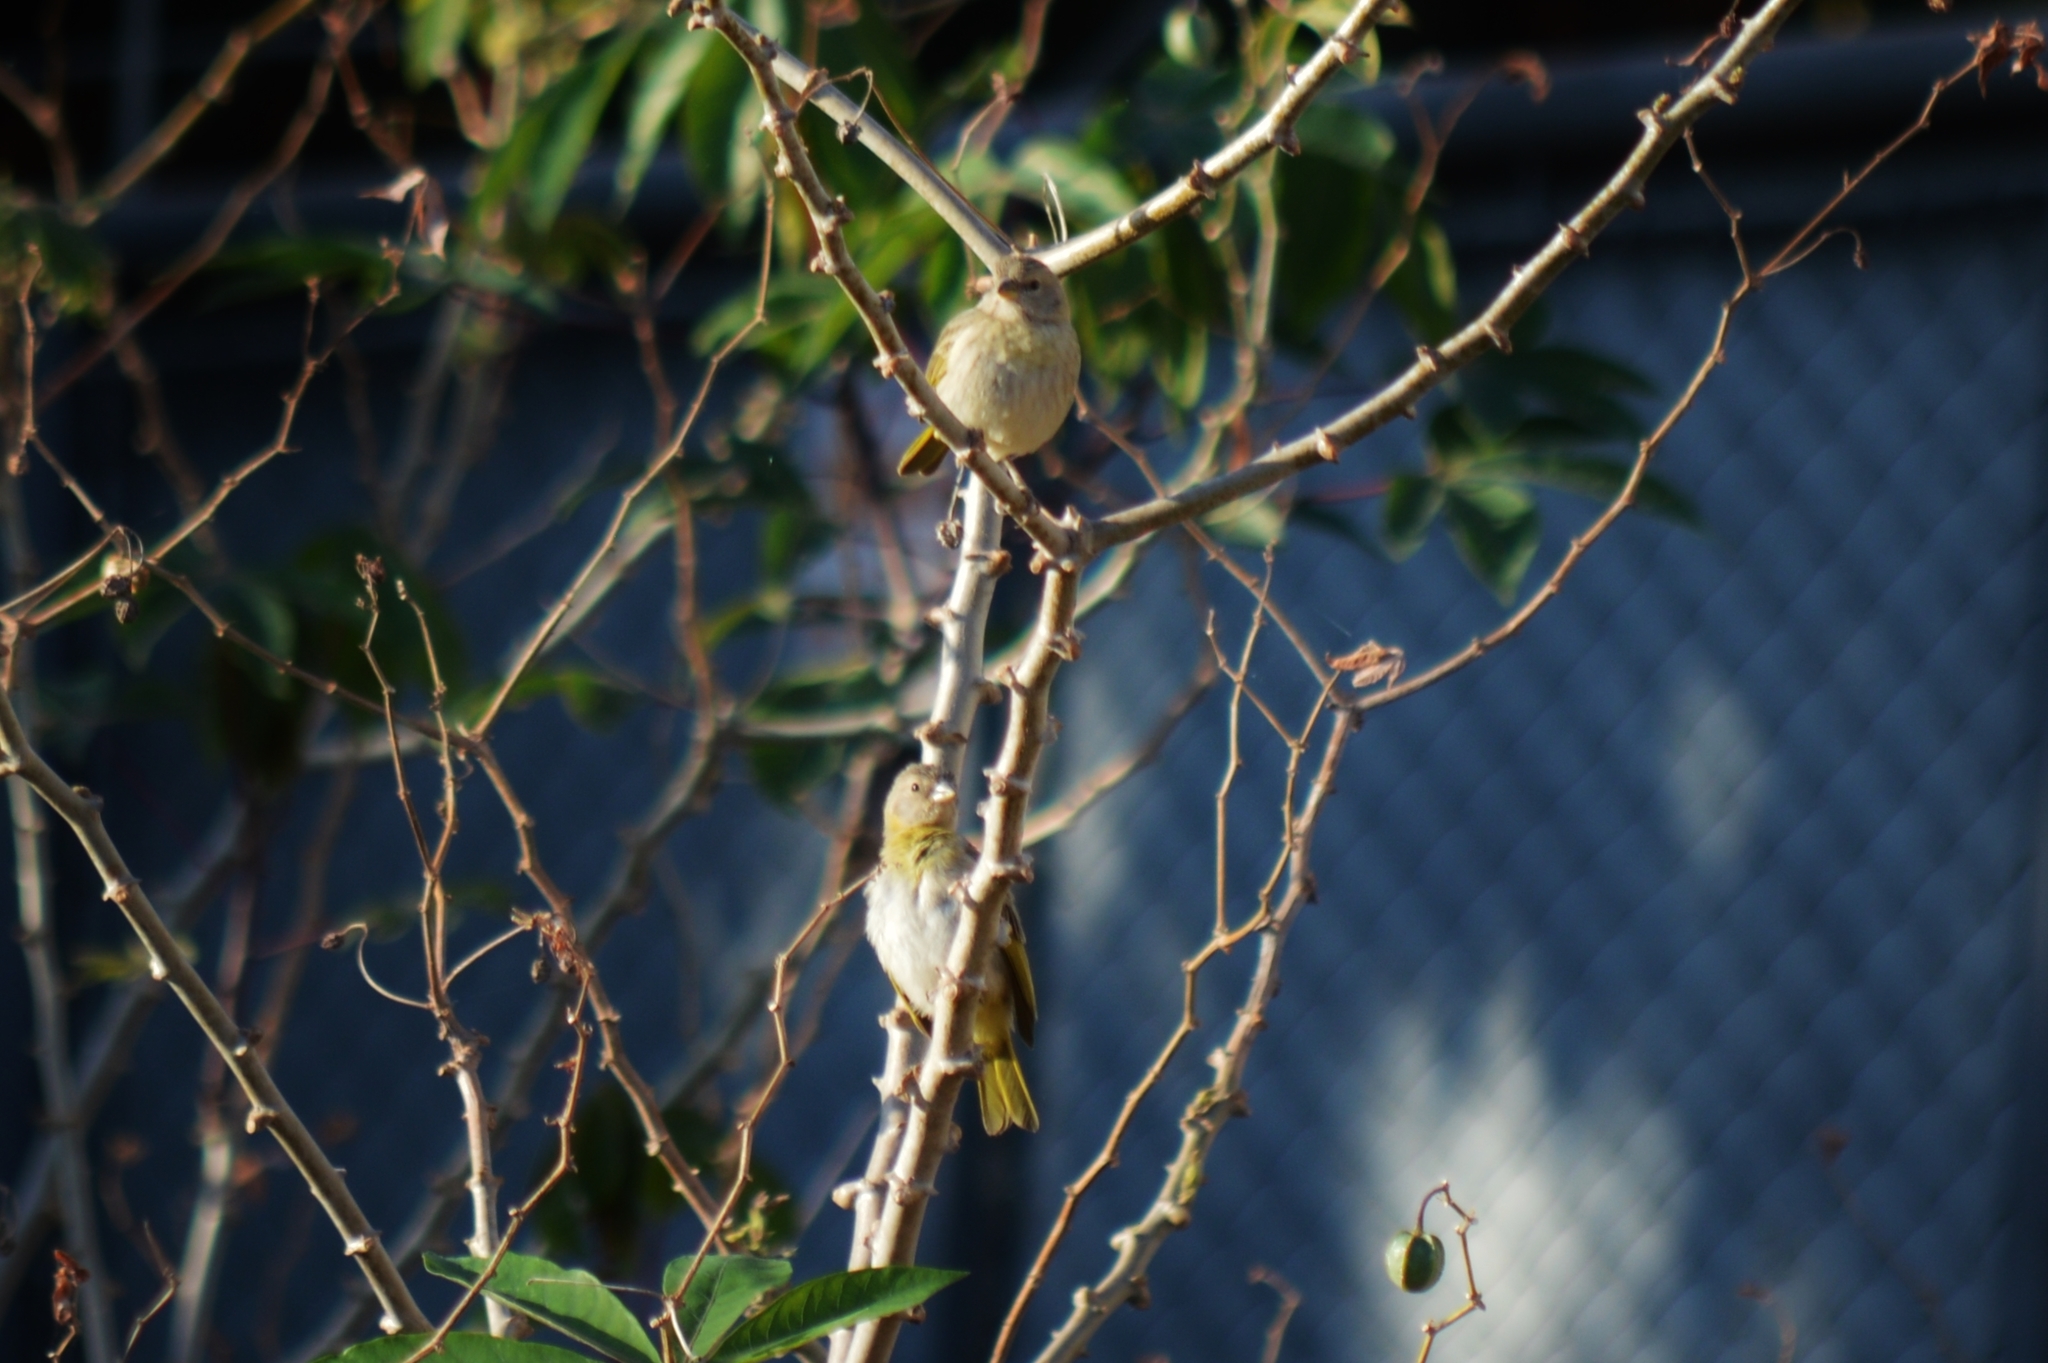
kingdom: Animalia
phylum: Chordata
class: Aves
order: Passeriformes
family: Thraupidae
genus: Sicalis
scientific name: Sicalis flaveola
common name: Saffron finch
